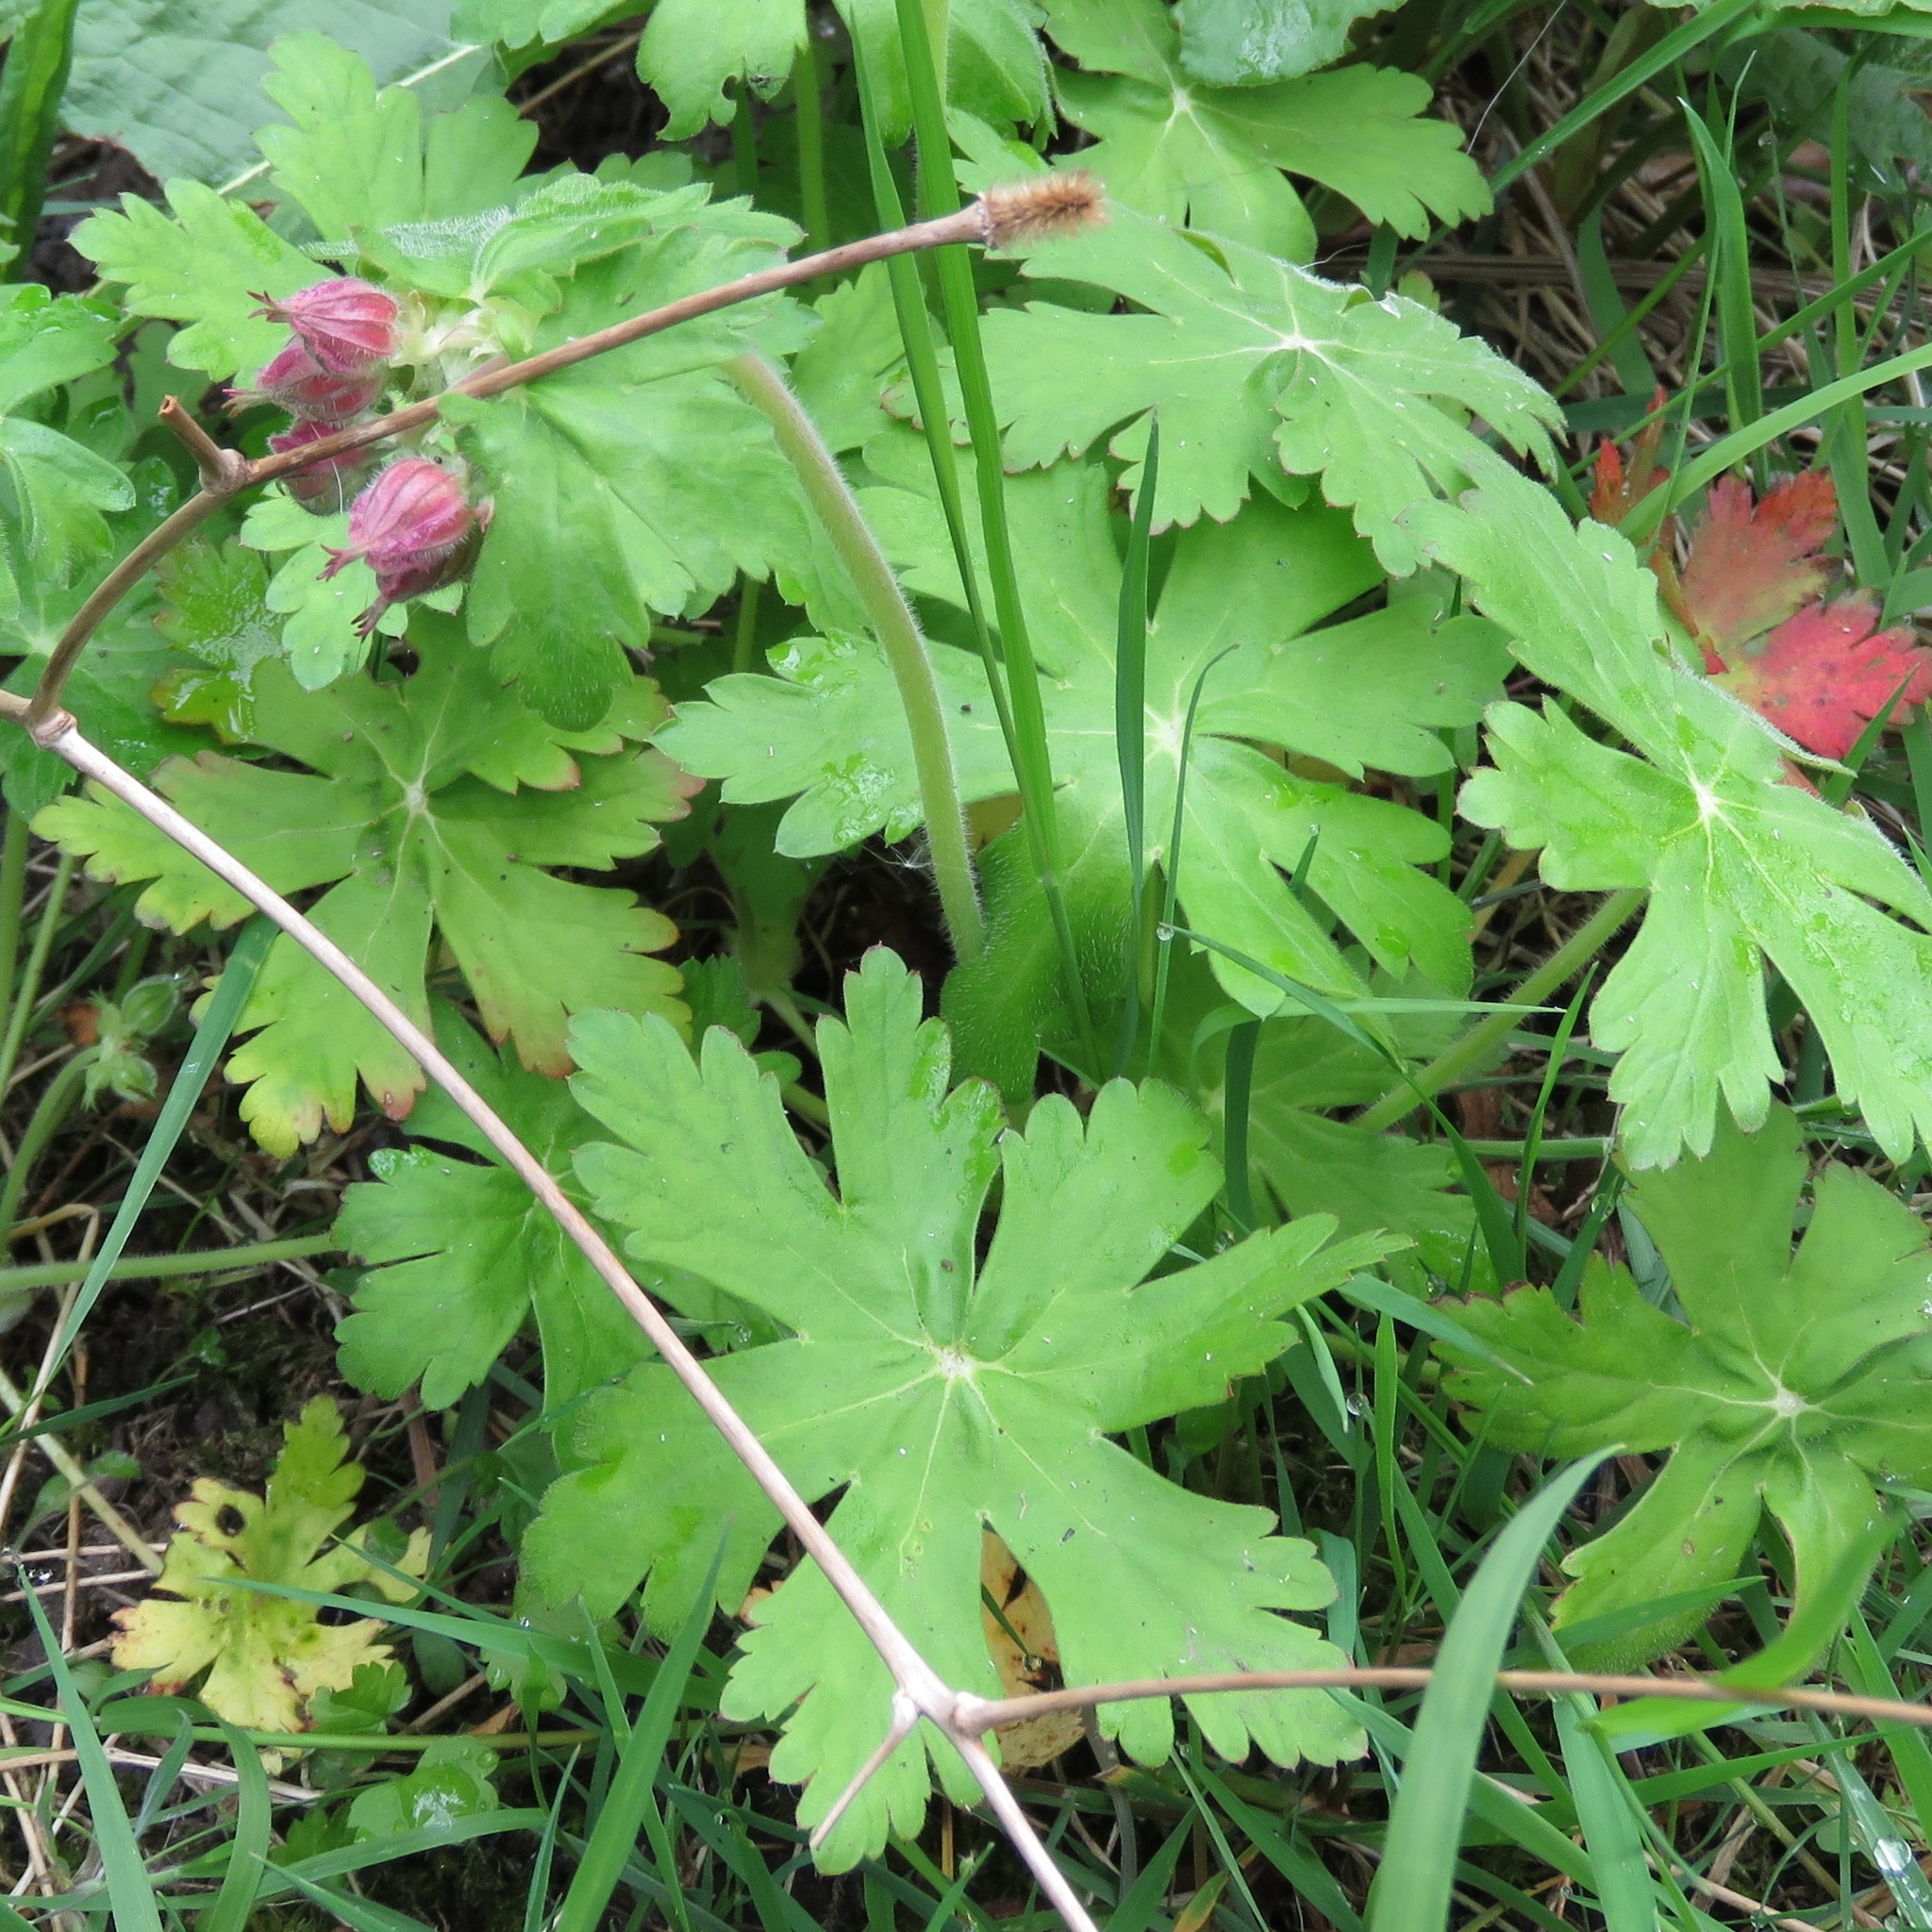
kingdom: Plantae
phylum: Tracheophyta
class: Magnoliopsida
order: Geraniales
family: Geraniaceae
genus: Geranium
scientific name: Geranium macrorrhizum
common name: Rock crane's-bill
